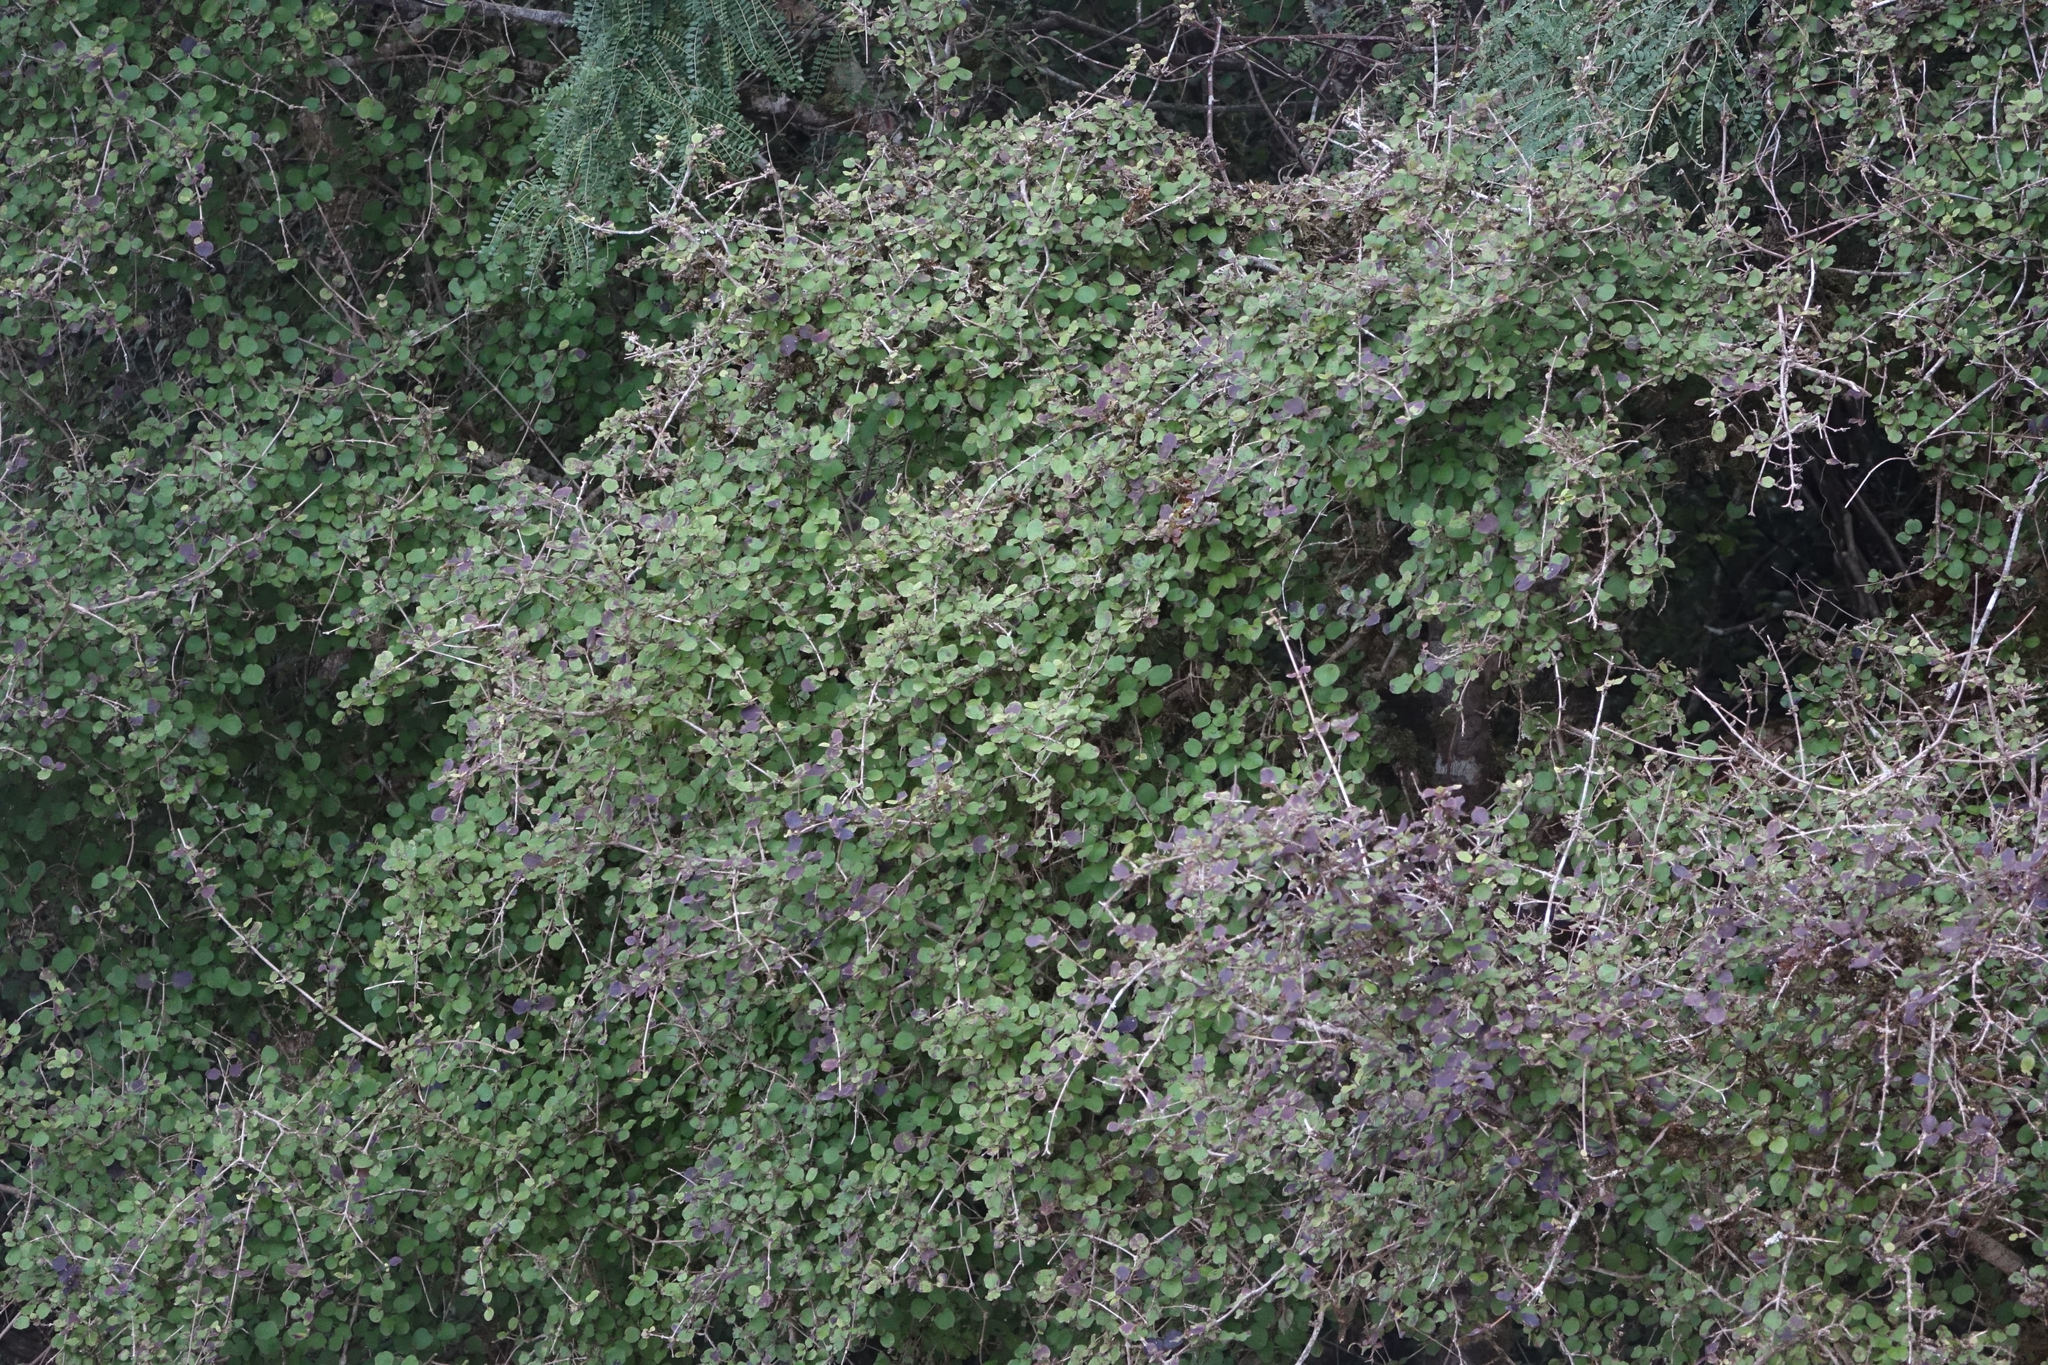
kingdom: Plantae
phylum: Tracheophyta
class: Magnoliopsida
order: Gentianales
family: Rubiaceae
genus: Coprosma
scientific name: Coprosma rotundifolia
